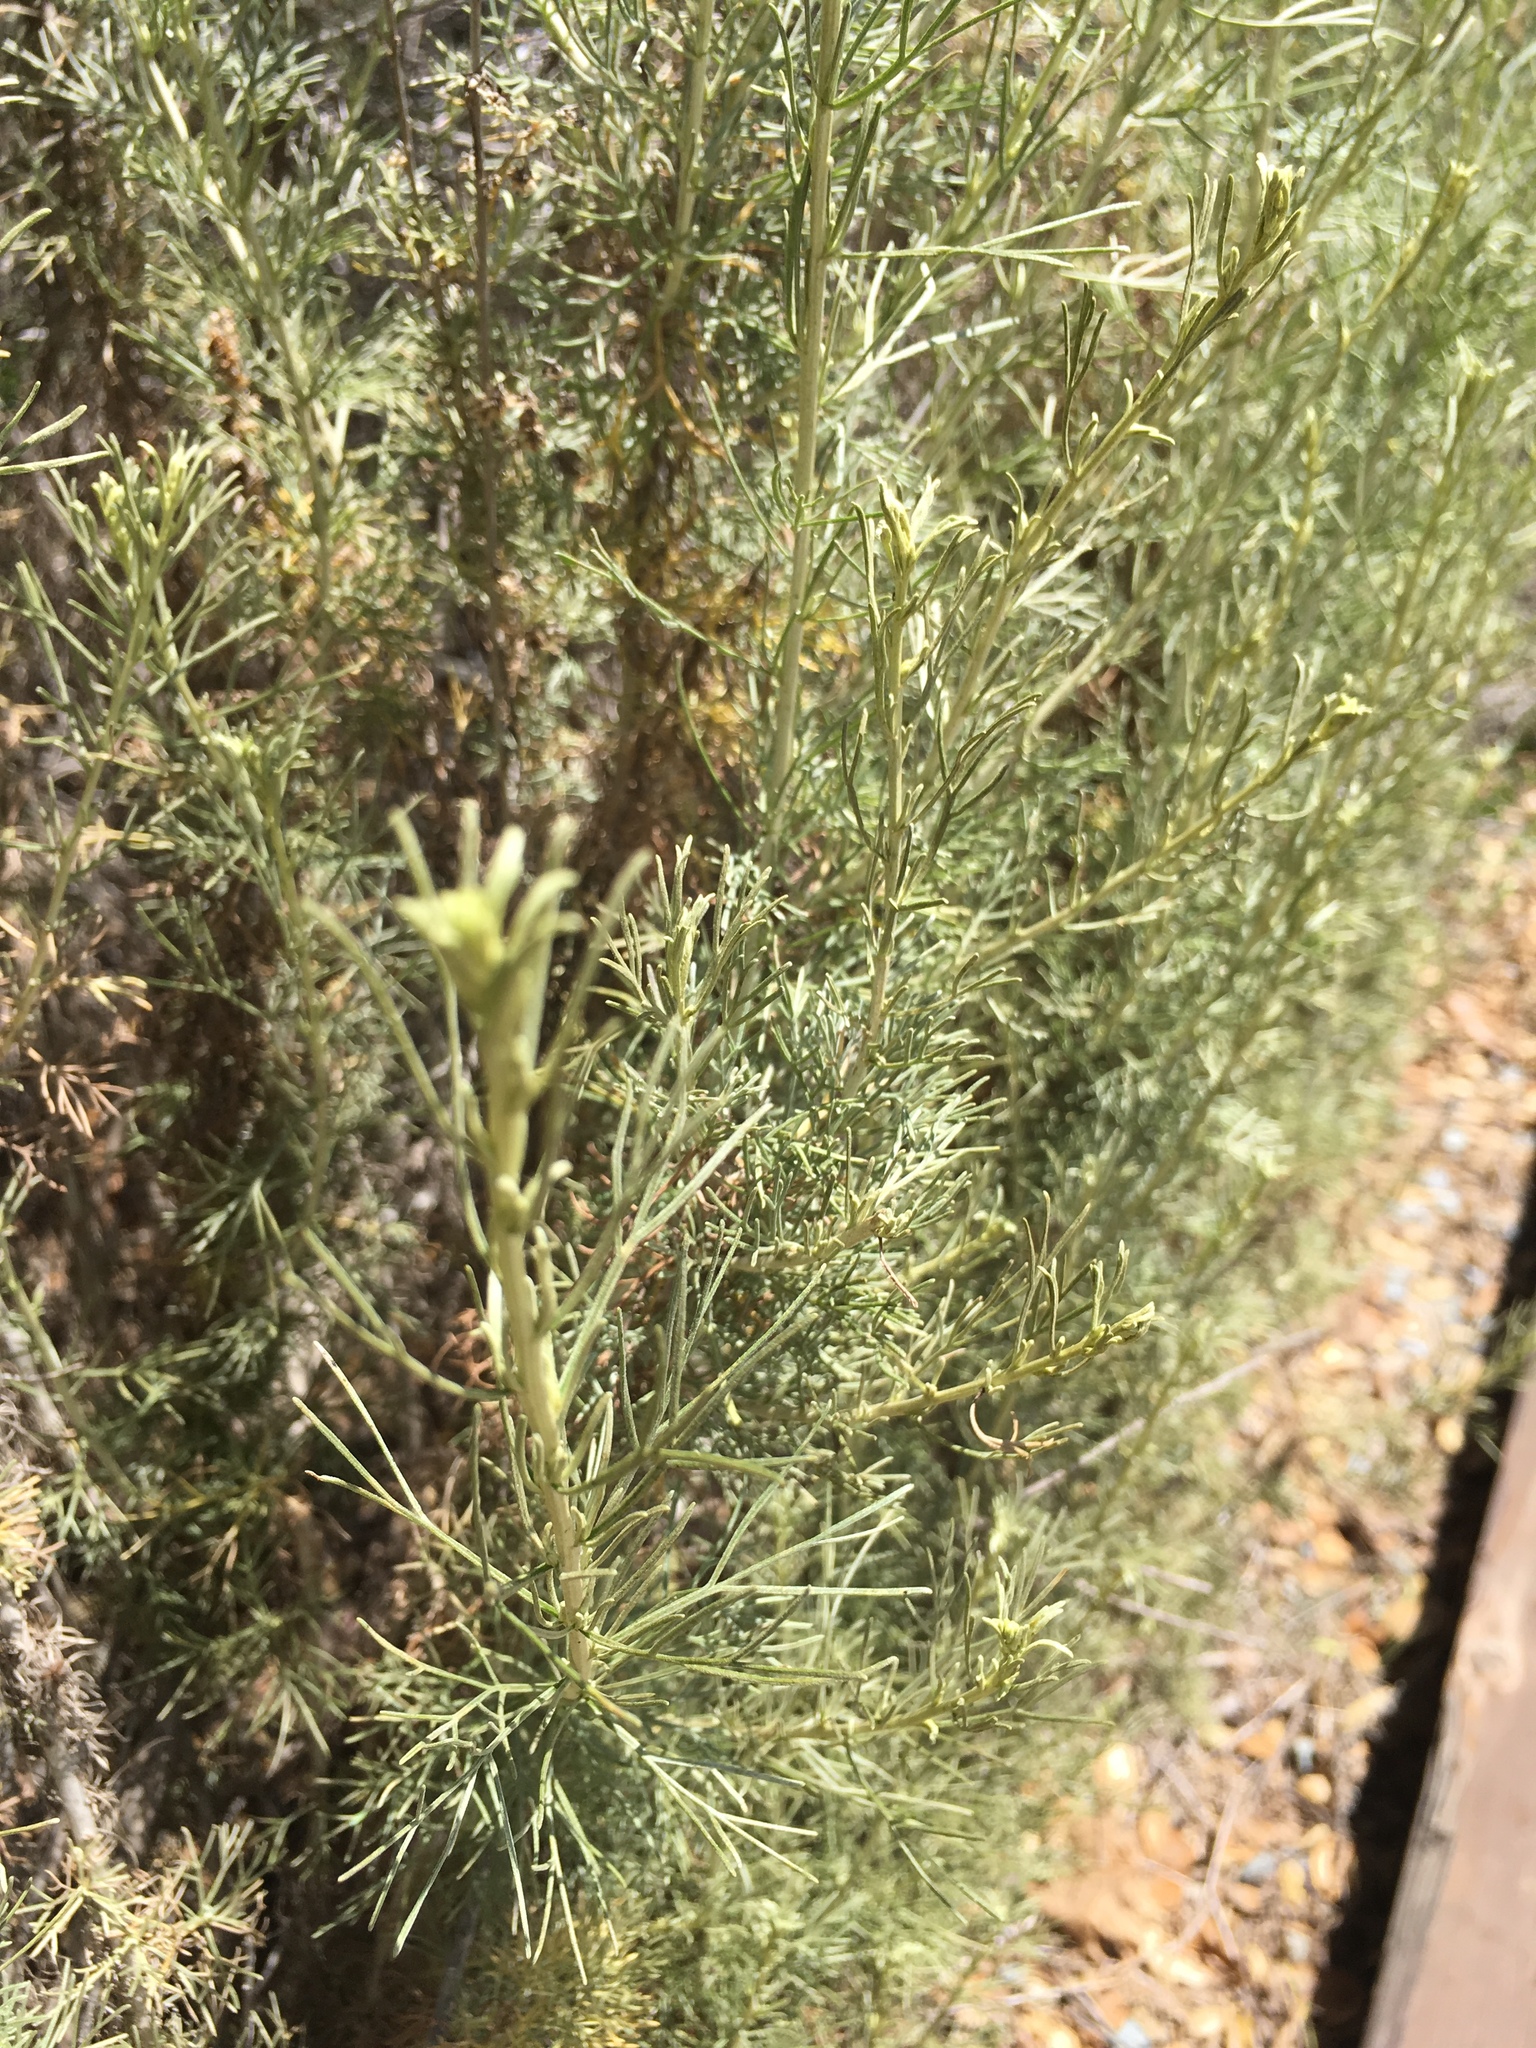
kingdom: Plantae
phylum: Tracheophyta
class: Magnoliopsida
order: Asterales
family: Asteraceae
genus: Artemisia
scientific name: Artemisia californica
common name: California sagebrush
